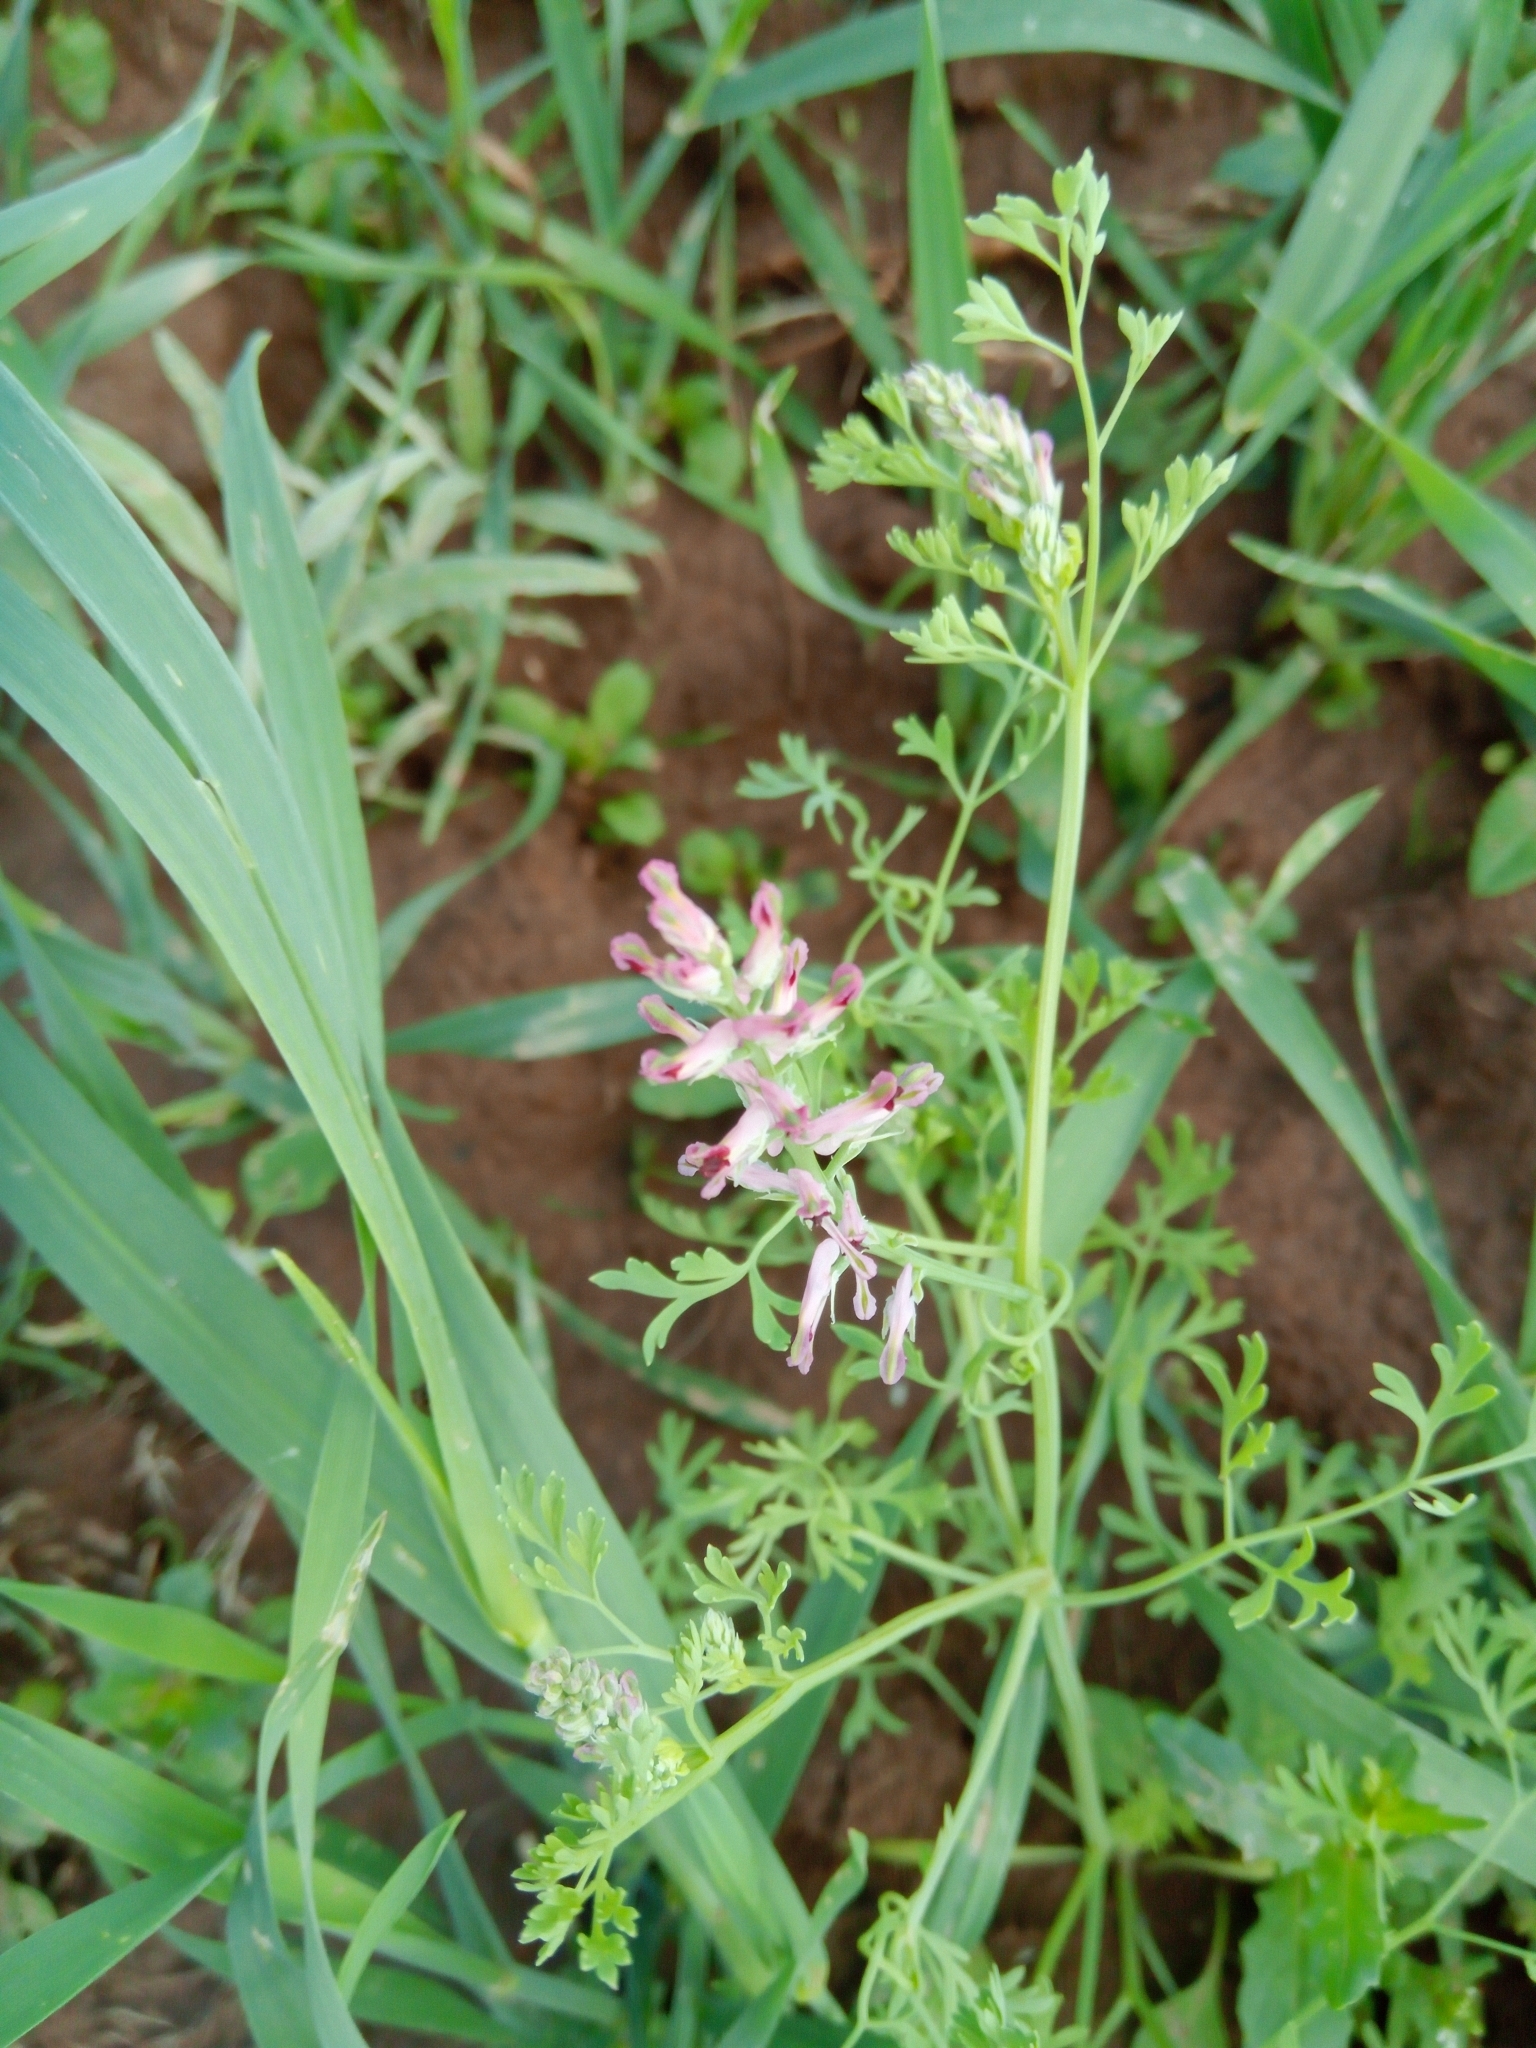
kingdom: Plantae
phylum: Tracheophyta
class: Magnoliopsida
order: Ranunculales
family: Papaveraceae
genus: Fumaria
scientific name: Fumaria officinalis
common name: Common fumitory
